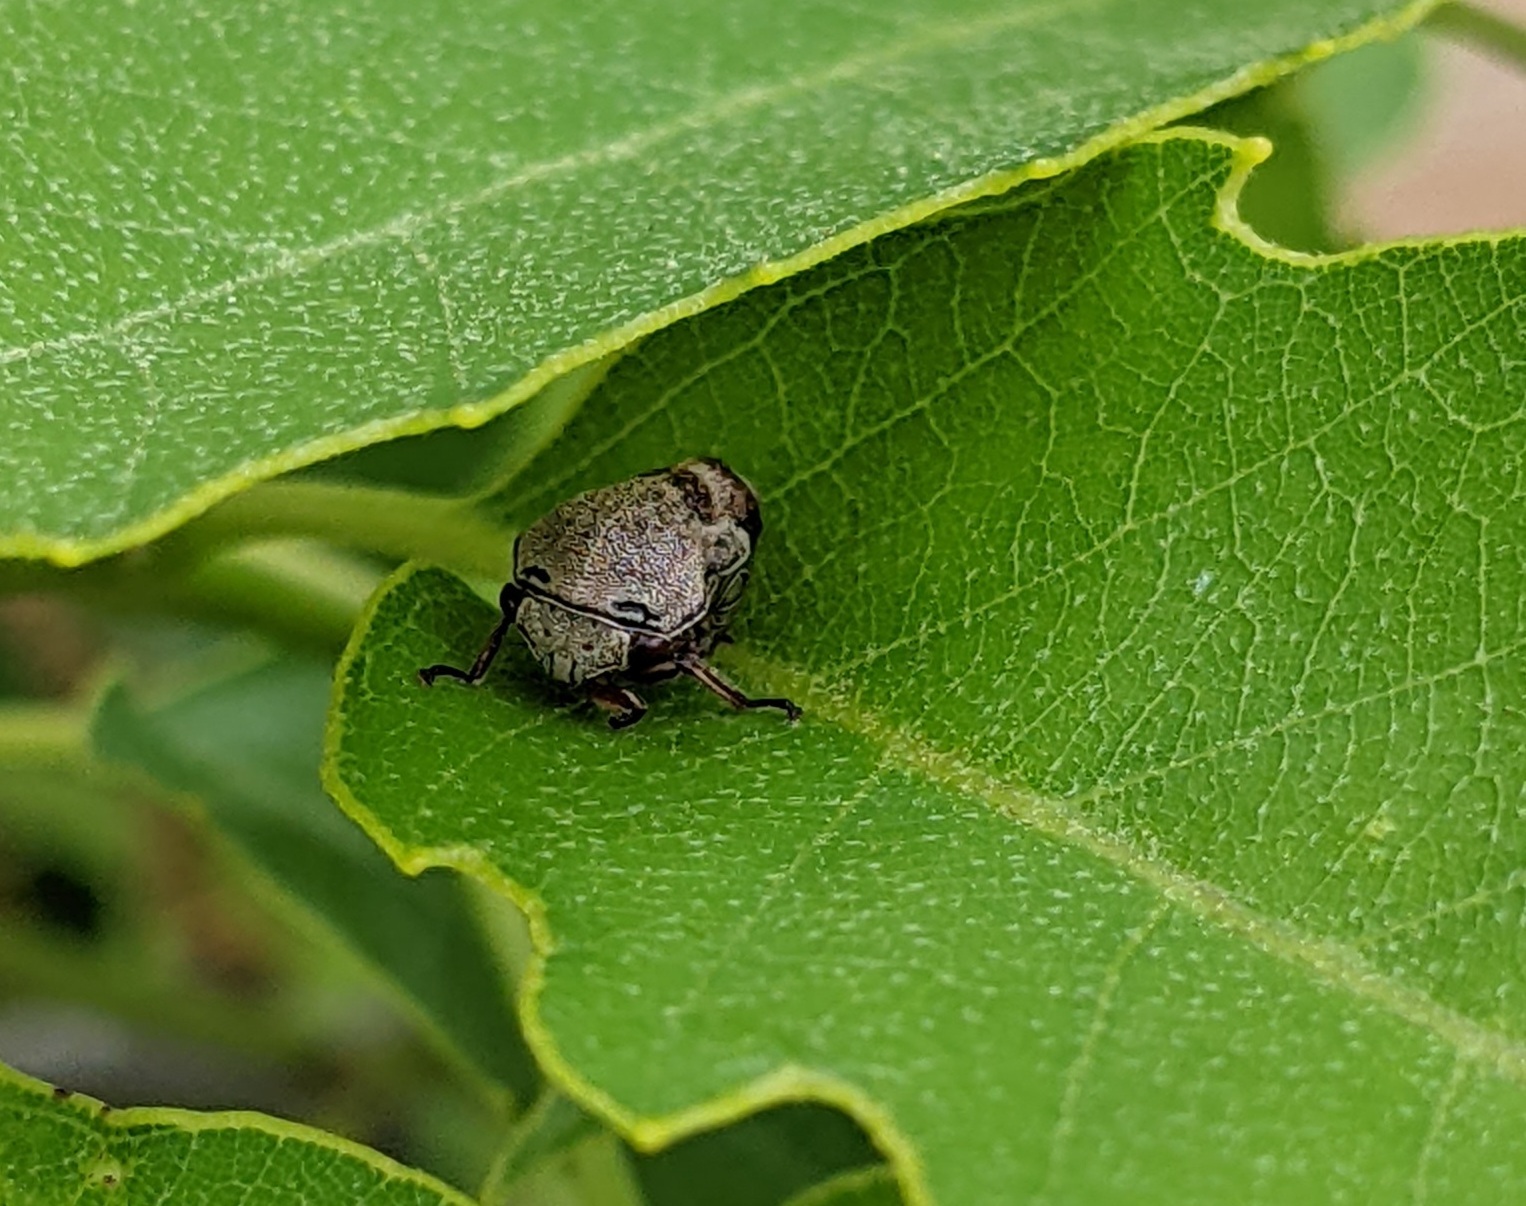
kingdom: Animalia
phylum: Arthropoda
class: Insecta
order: Hemiptera
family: Membracidae
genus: Xantholobus
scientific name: Xantholobus nigrocincta
